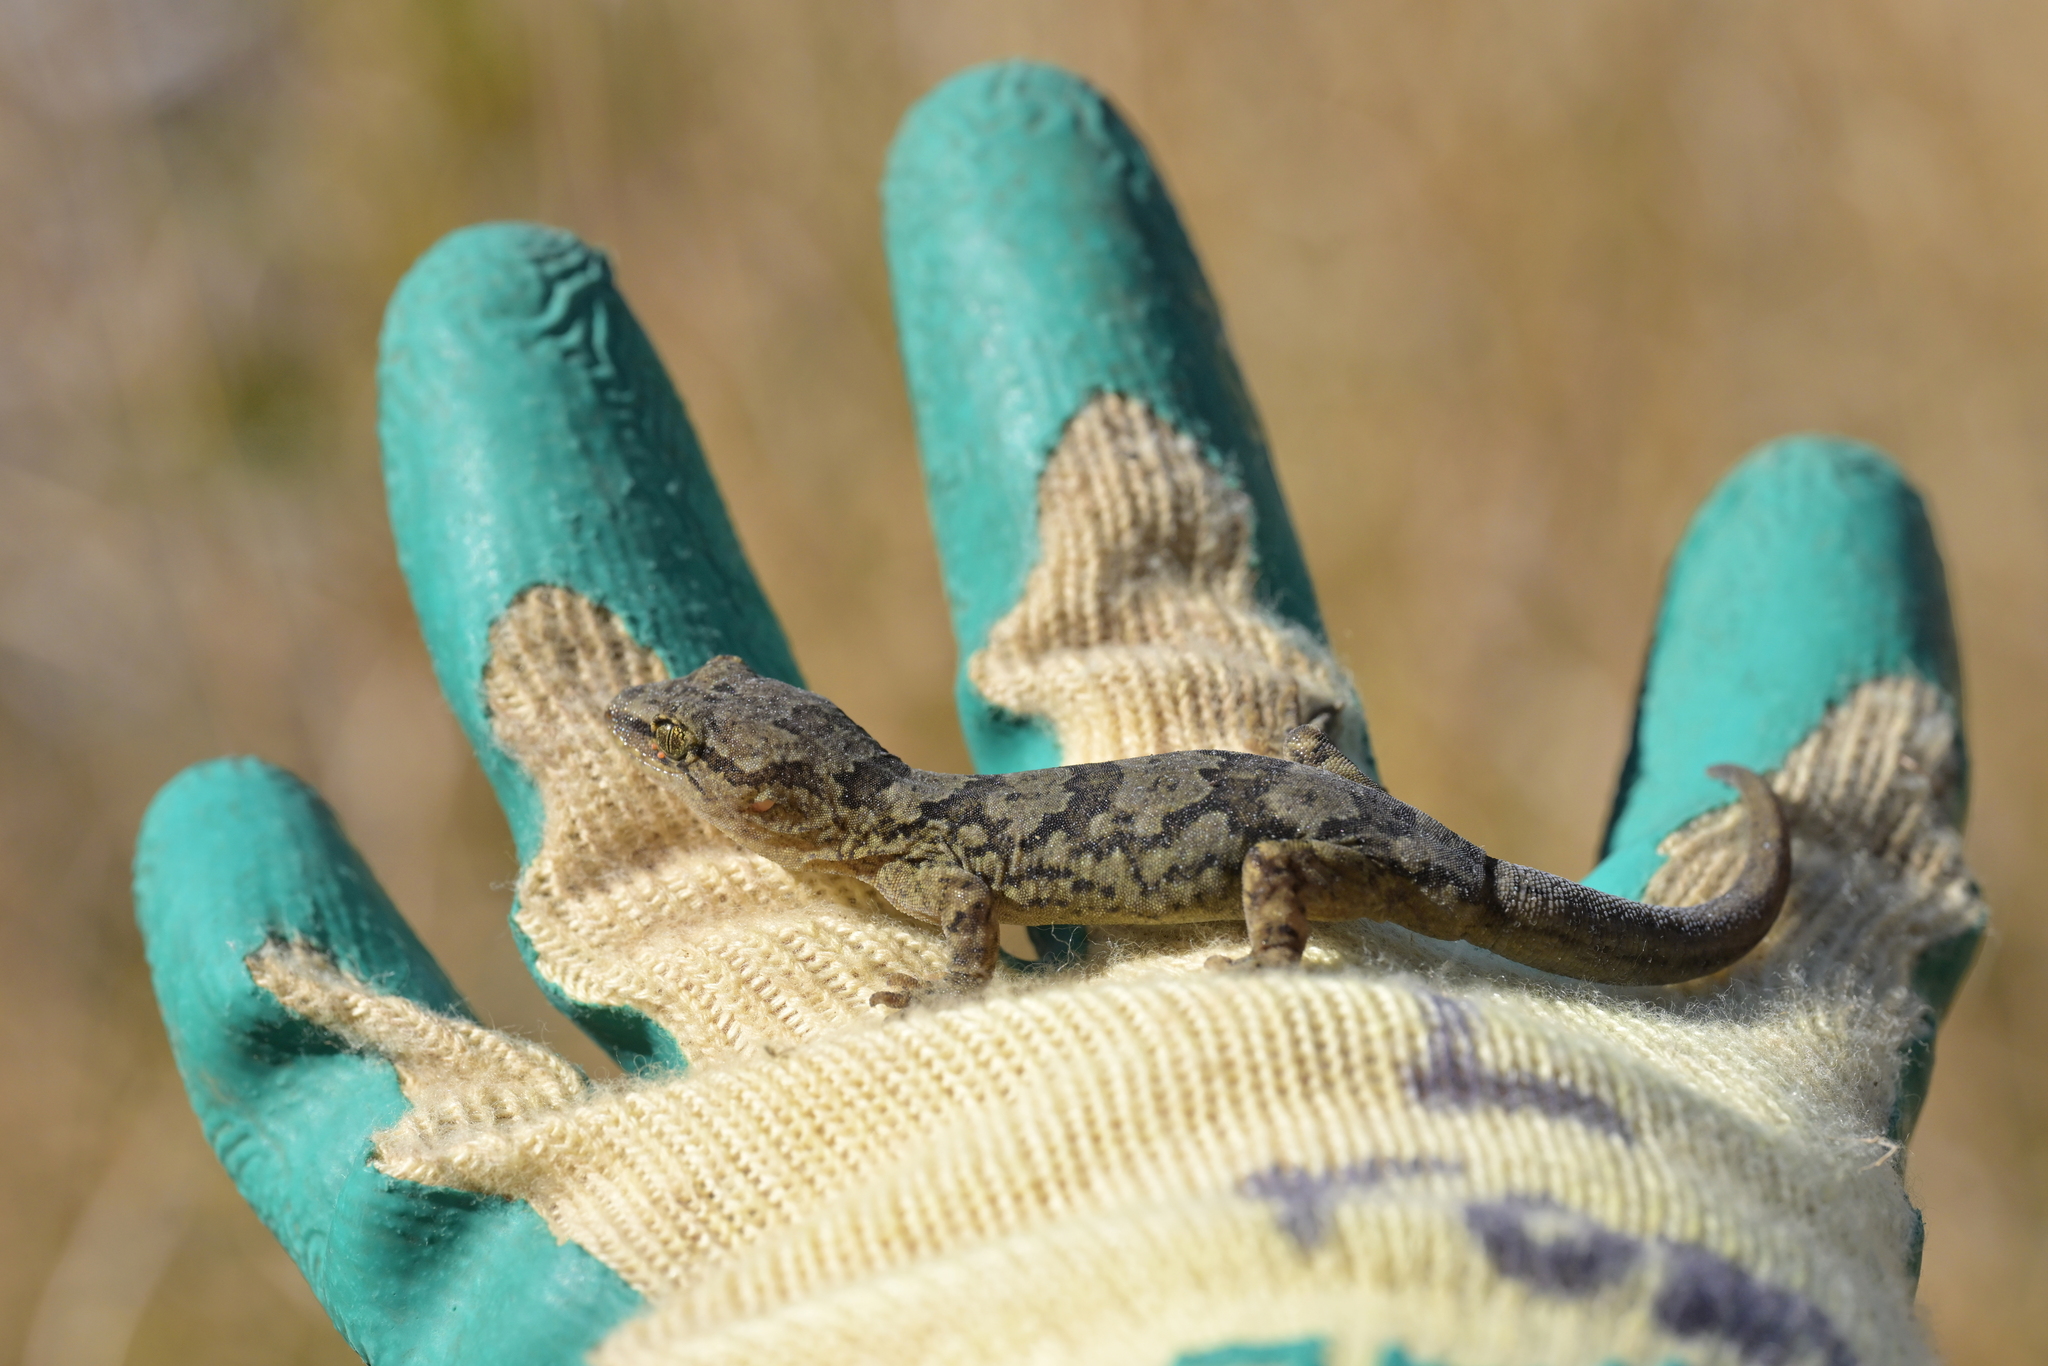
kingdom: Animalia
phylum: Chordata
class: Squamata
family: Diplodactylidae
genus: Woodworthia
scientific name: Woodworthia maculata
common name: Raukawa gecko
